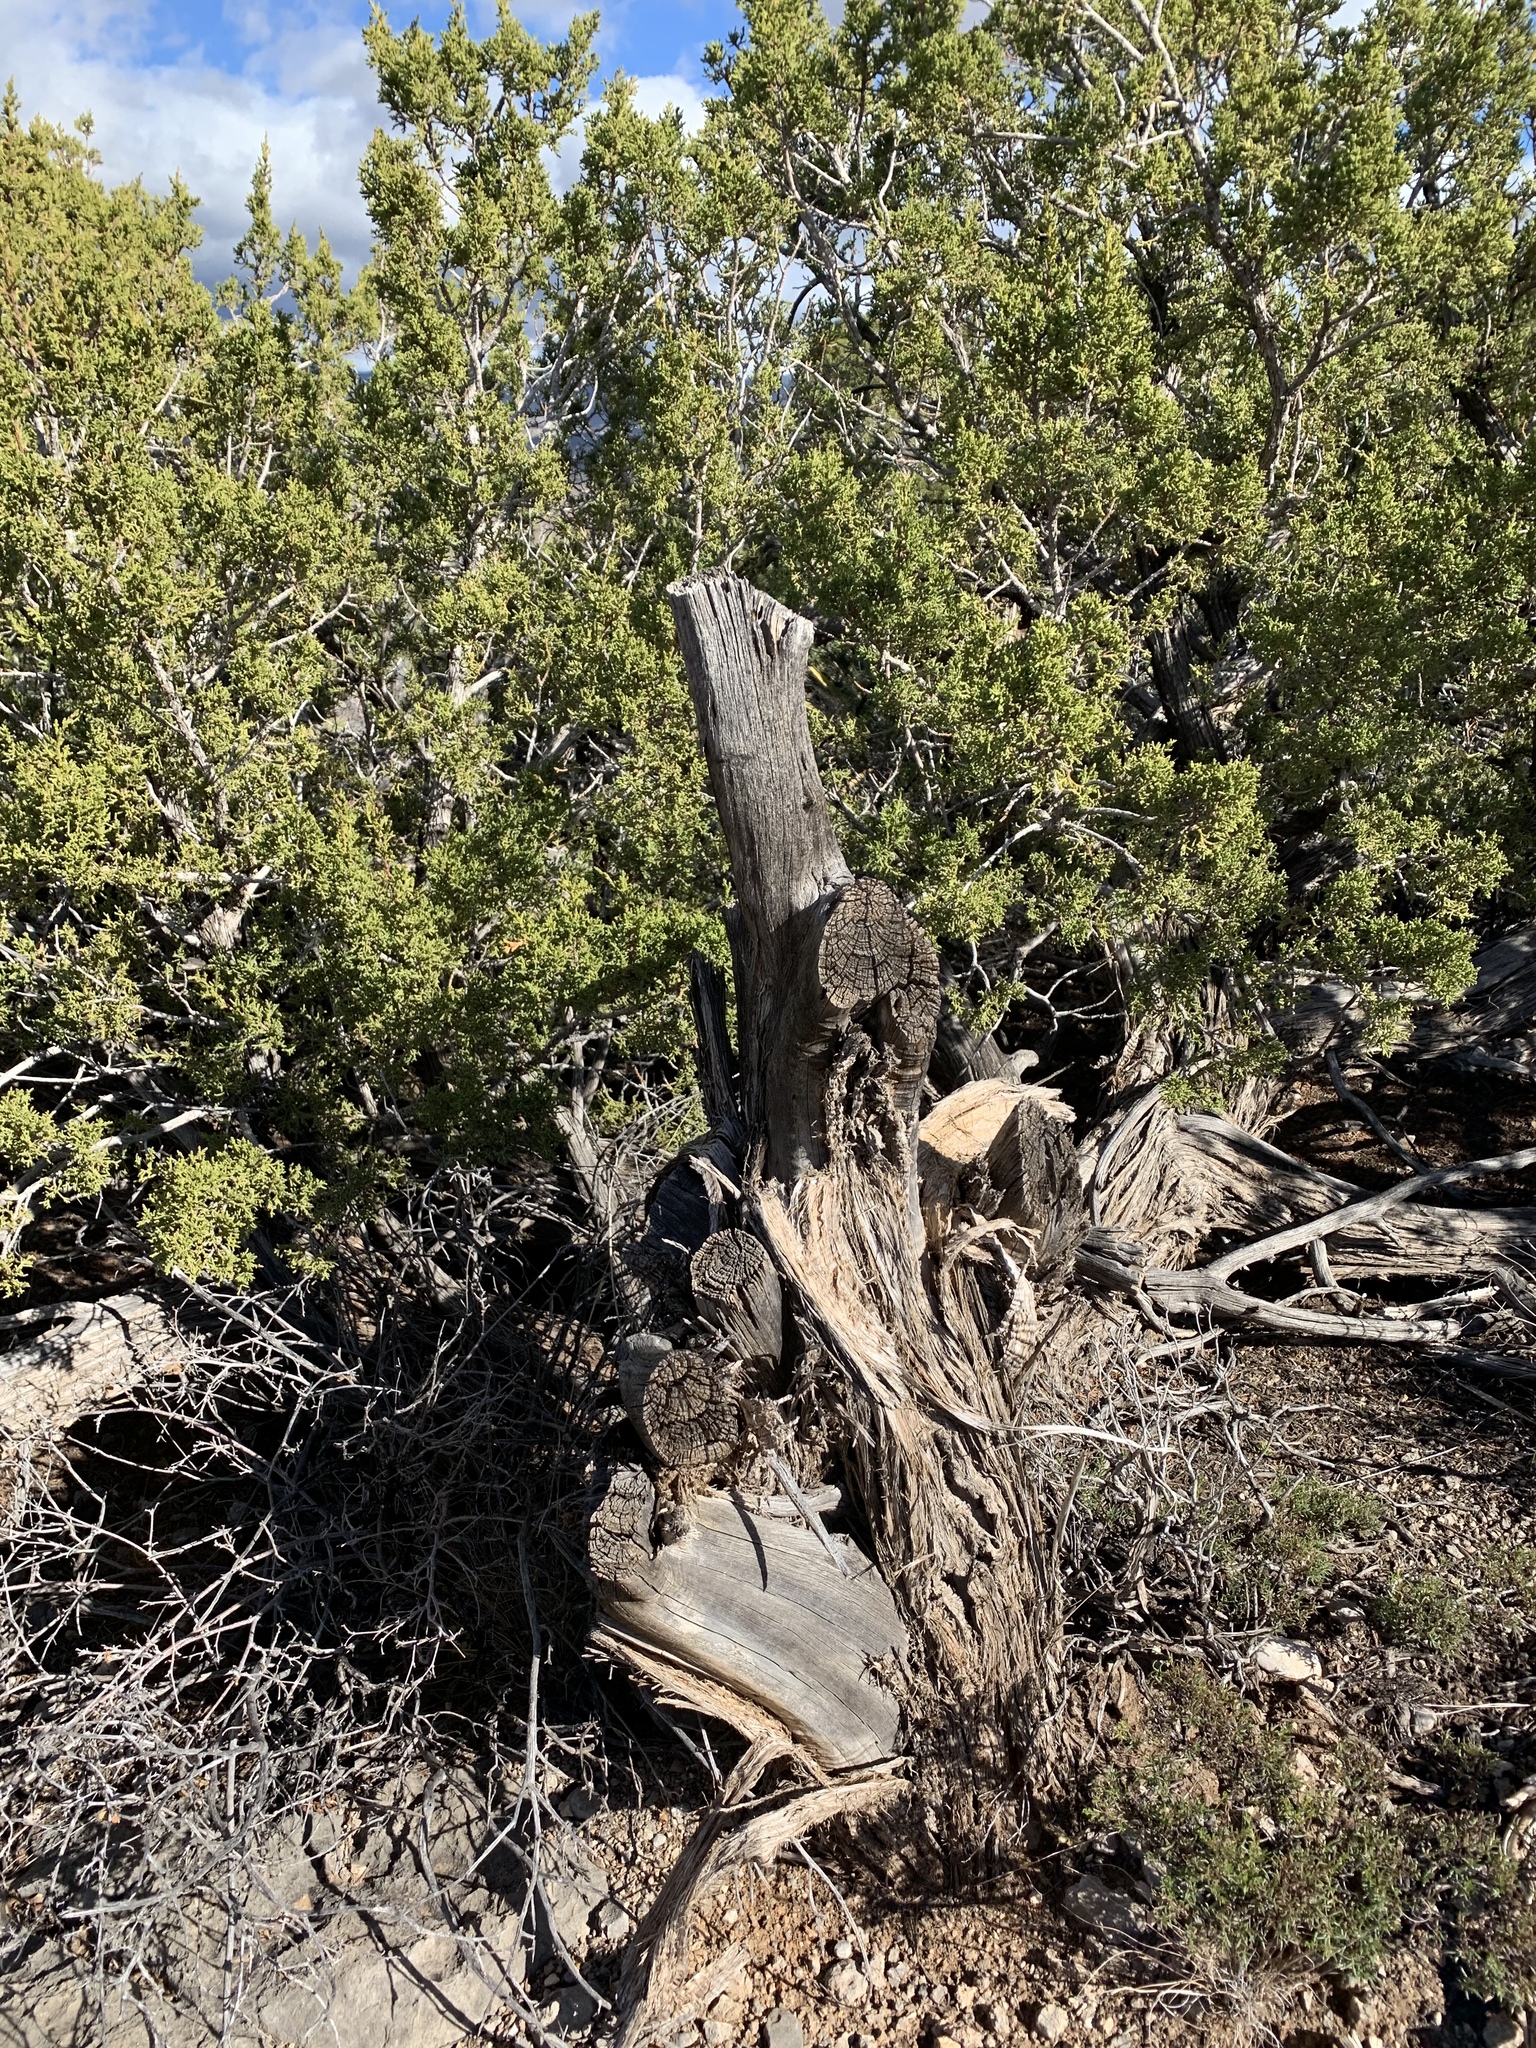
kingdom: Plantae
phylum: Tracheophyta
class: Pinopsida
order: Pinales
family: Cupressaceae
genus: Juniperus
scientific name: Juniperus monosperma
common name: One-seed juniper
